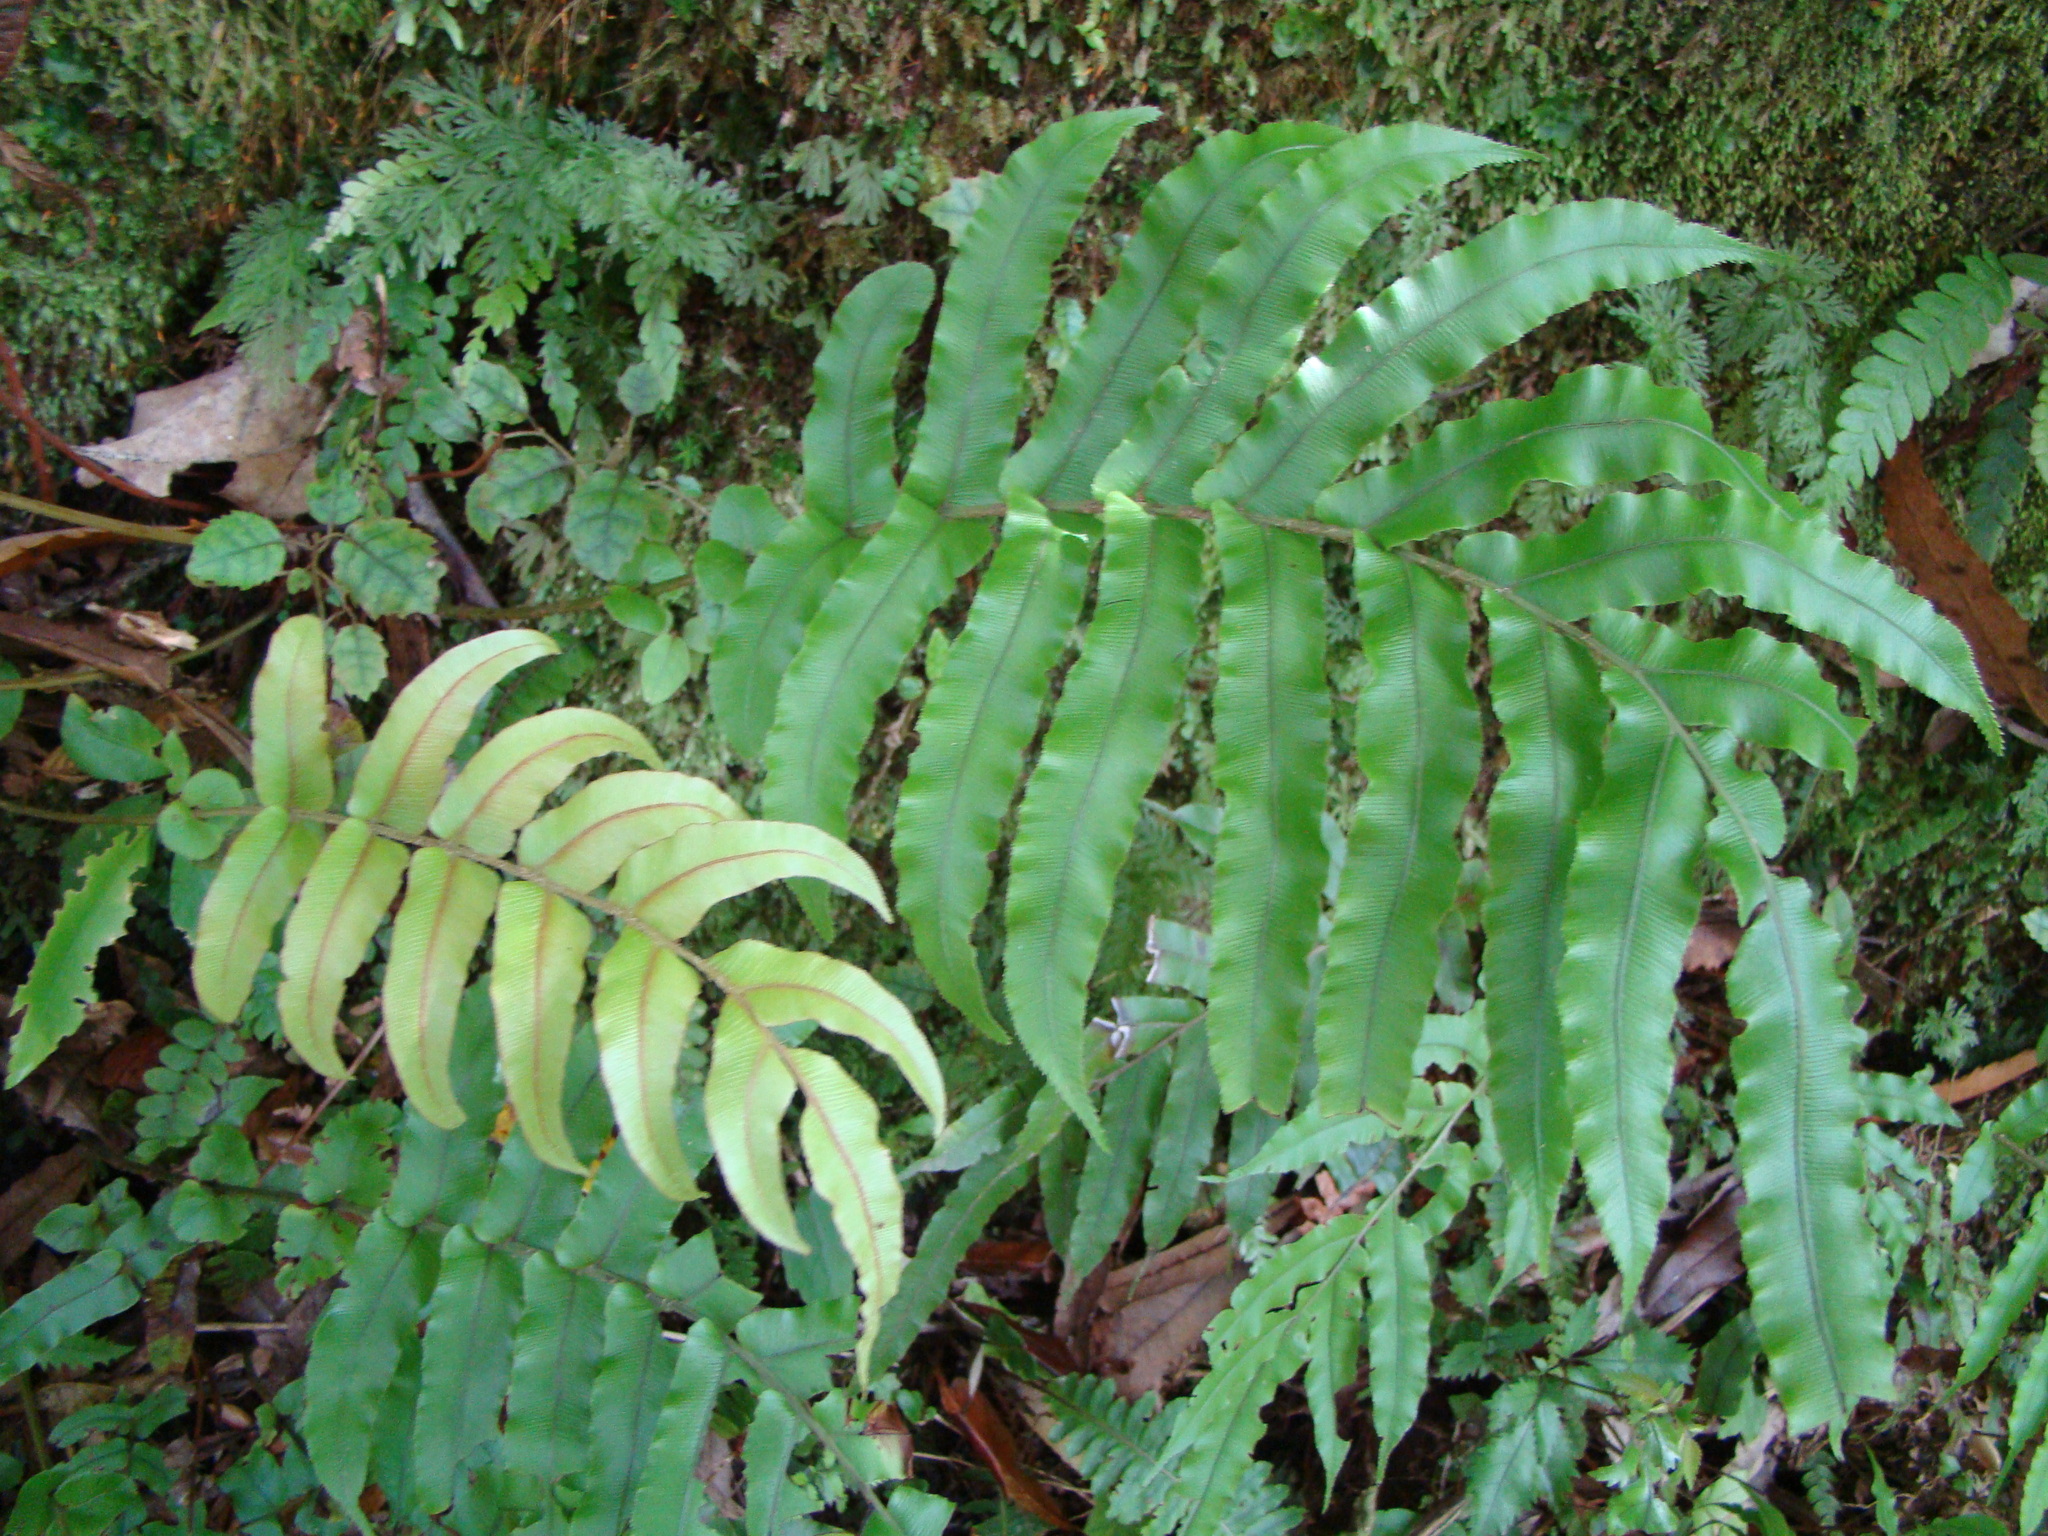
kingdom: Plantae
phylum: Tracheophyta
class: Polypodiopsida
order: Polypodiales
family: Blechnaceae
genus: Parablechnum
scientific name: Parablechnum novae-zelandiae
